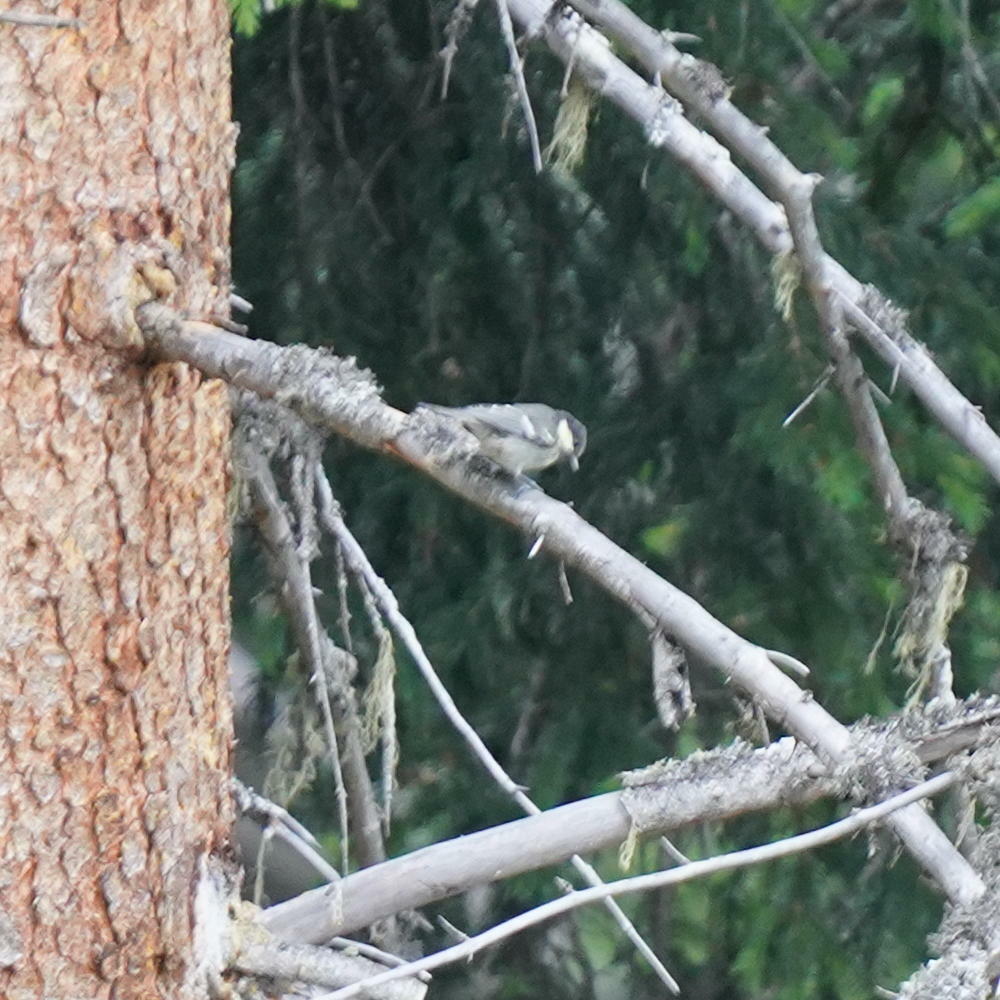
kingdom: Animalia
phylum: Chordata
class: Aves
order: Passeriformes
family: Paridae
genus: Periparus
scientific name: Periparus ater
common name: Coal tit
